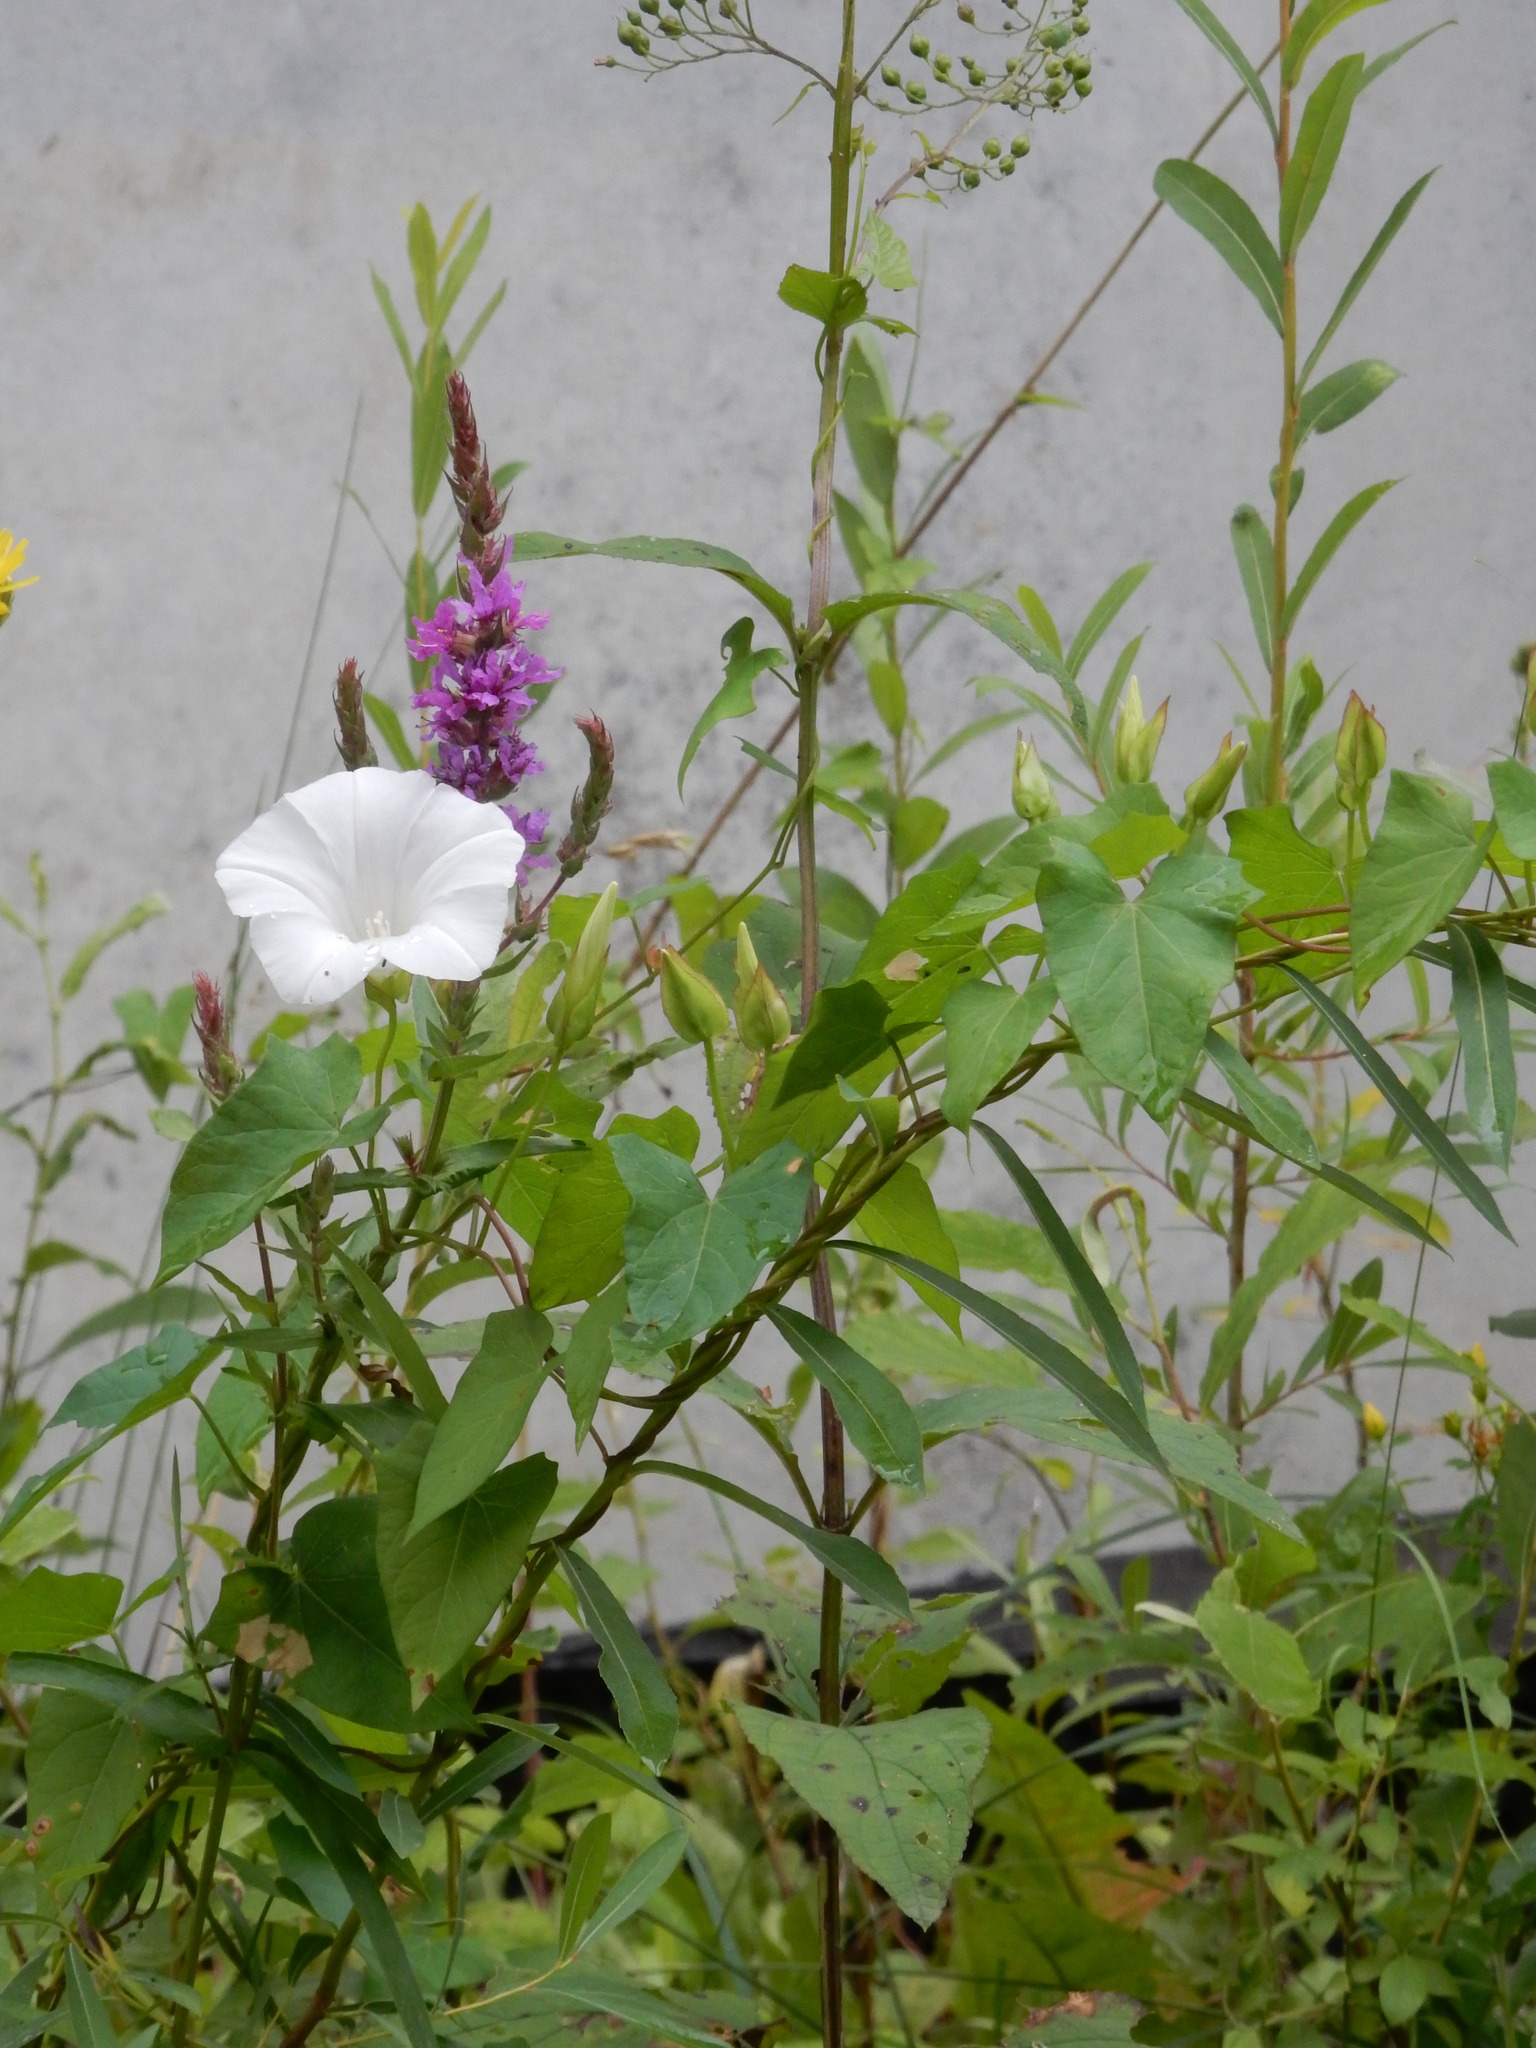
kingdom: Plantae
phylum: Tracheophyta
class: Magnoliopsida
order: Solanales
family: Convolvulaceae
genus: Calystegia
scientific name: Calystegia sepium
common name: Hedge bindweed
